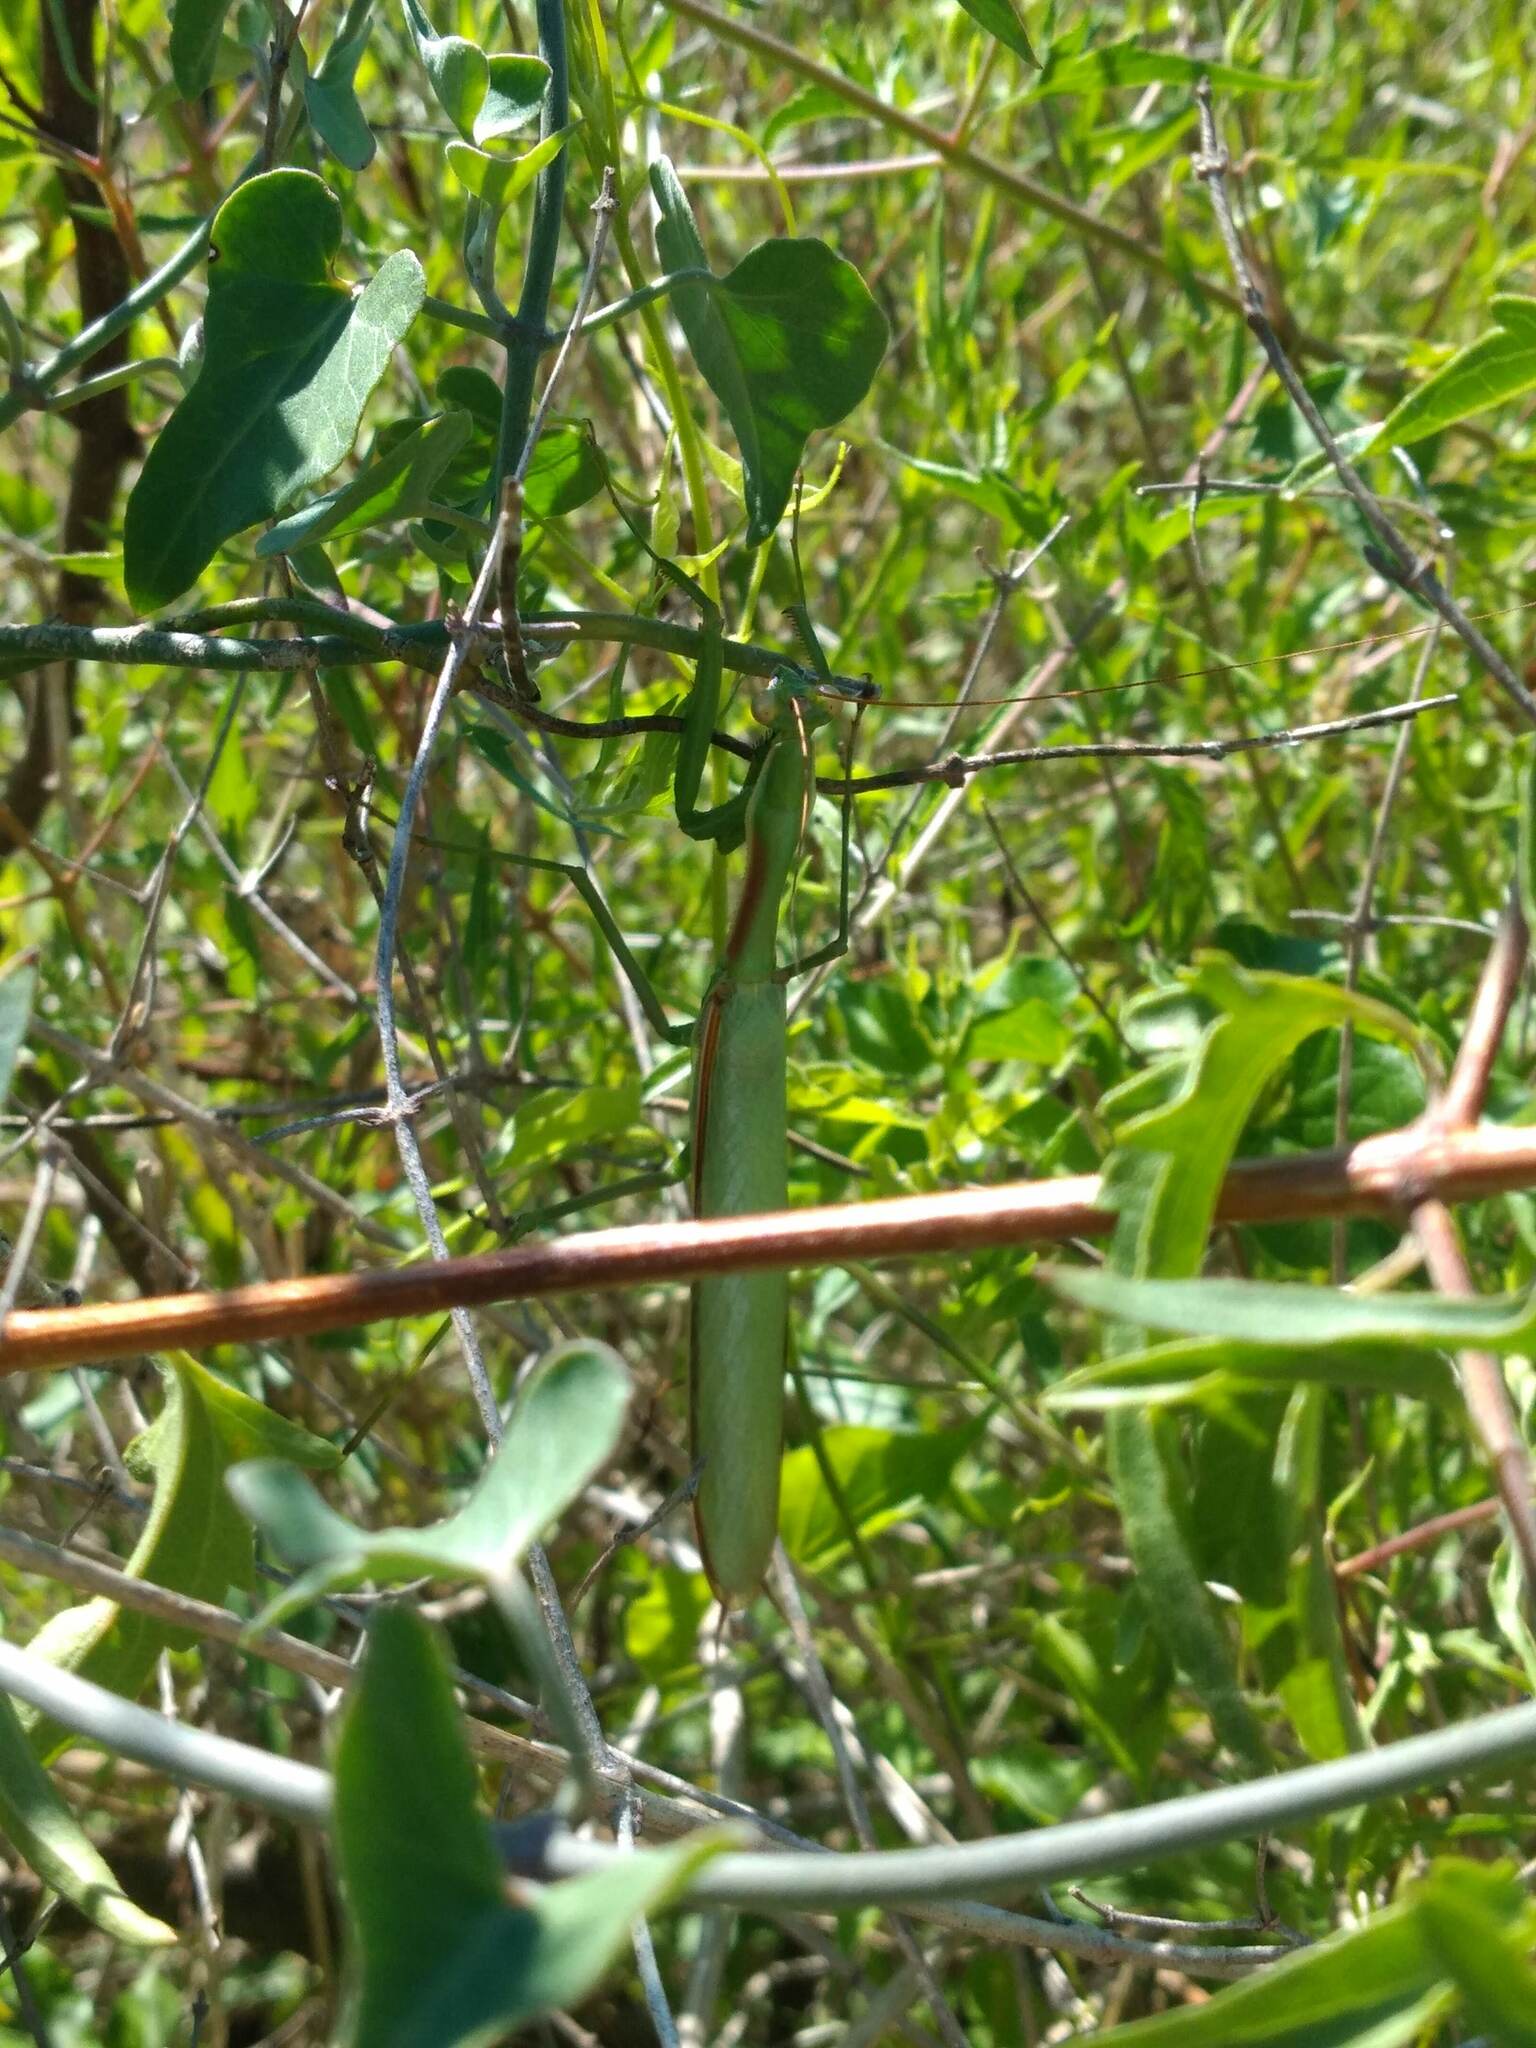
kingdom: Animalia
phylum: Arthropoda
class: Insecta
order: Mantodea
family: Coptopterygidae
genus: Coptopteryx
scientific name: Coptopteryx argentina
